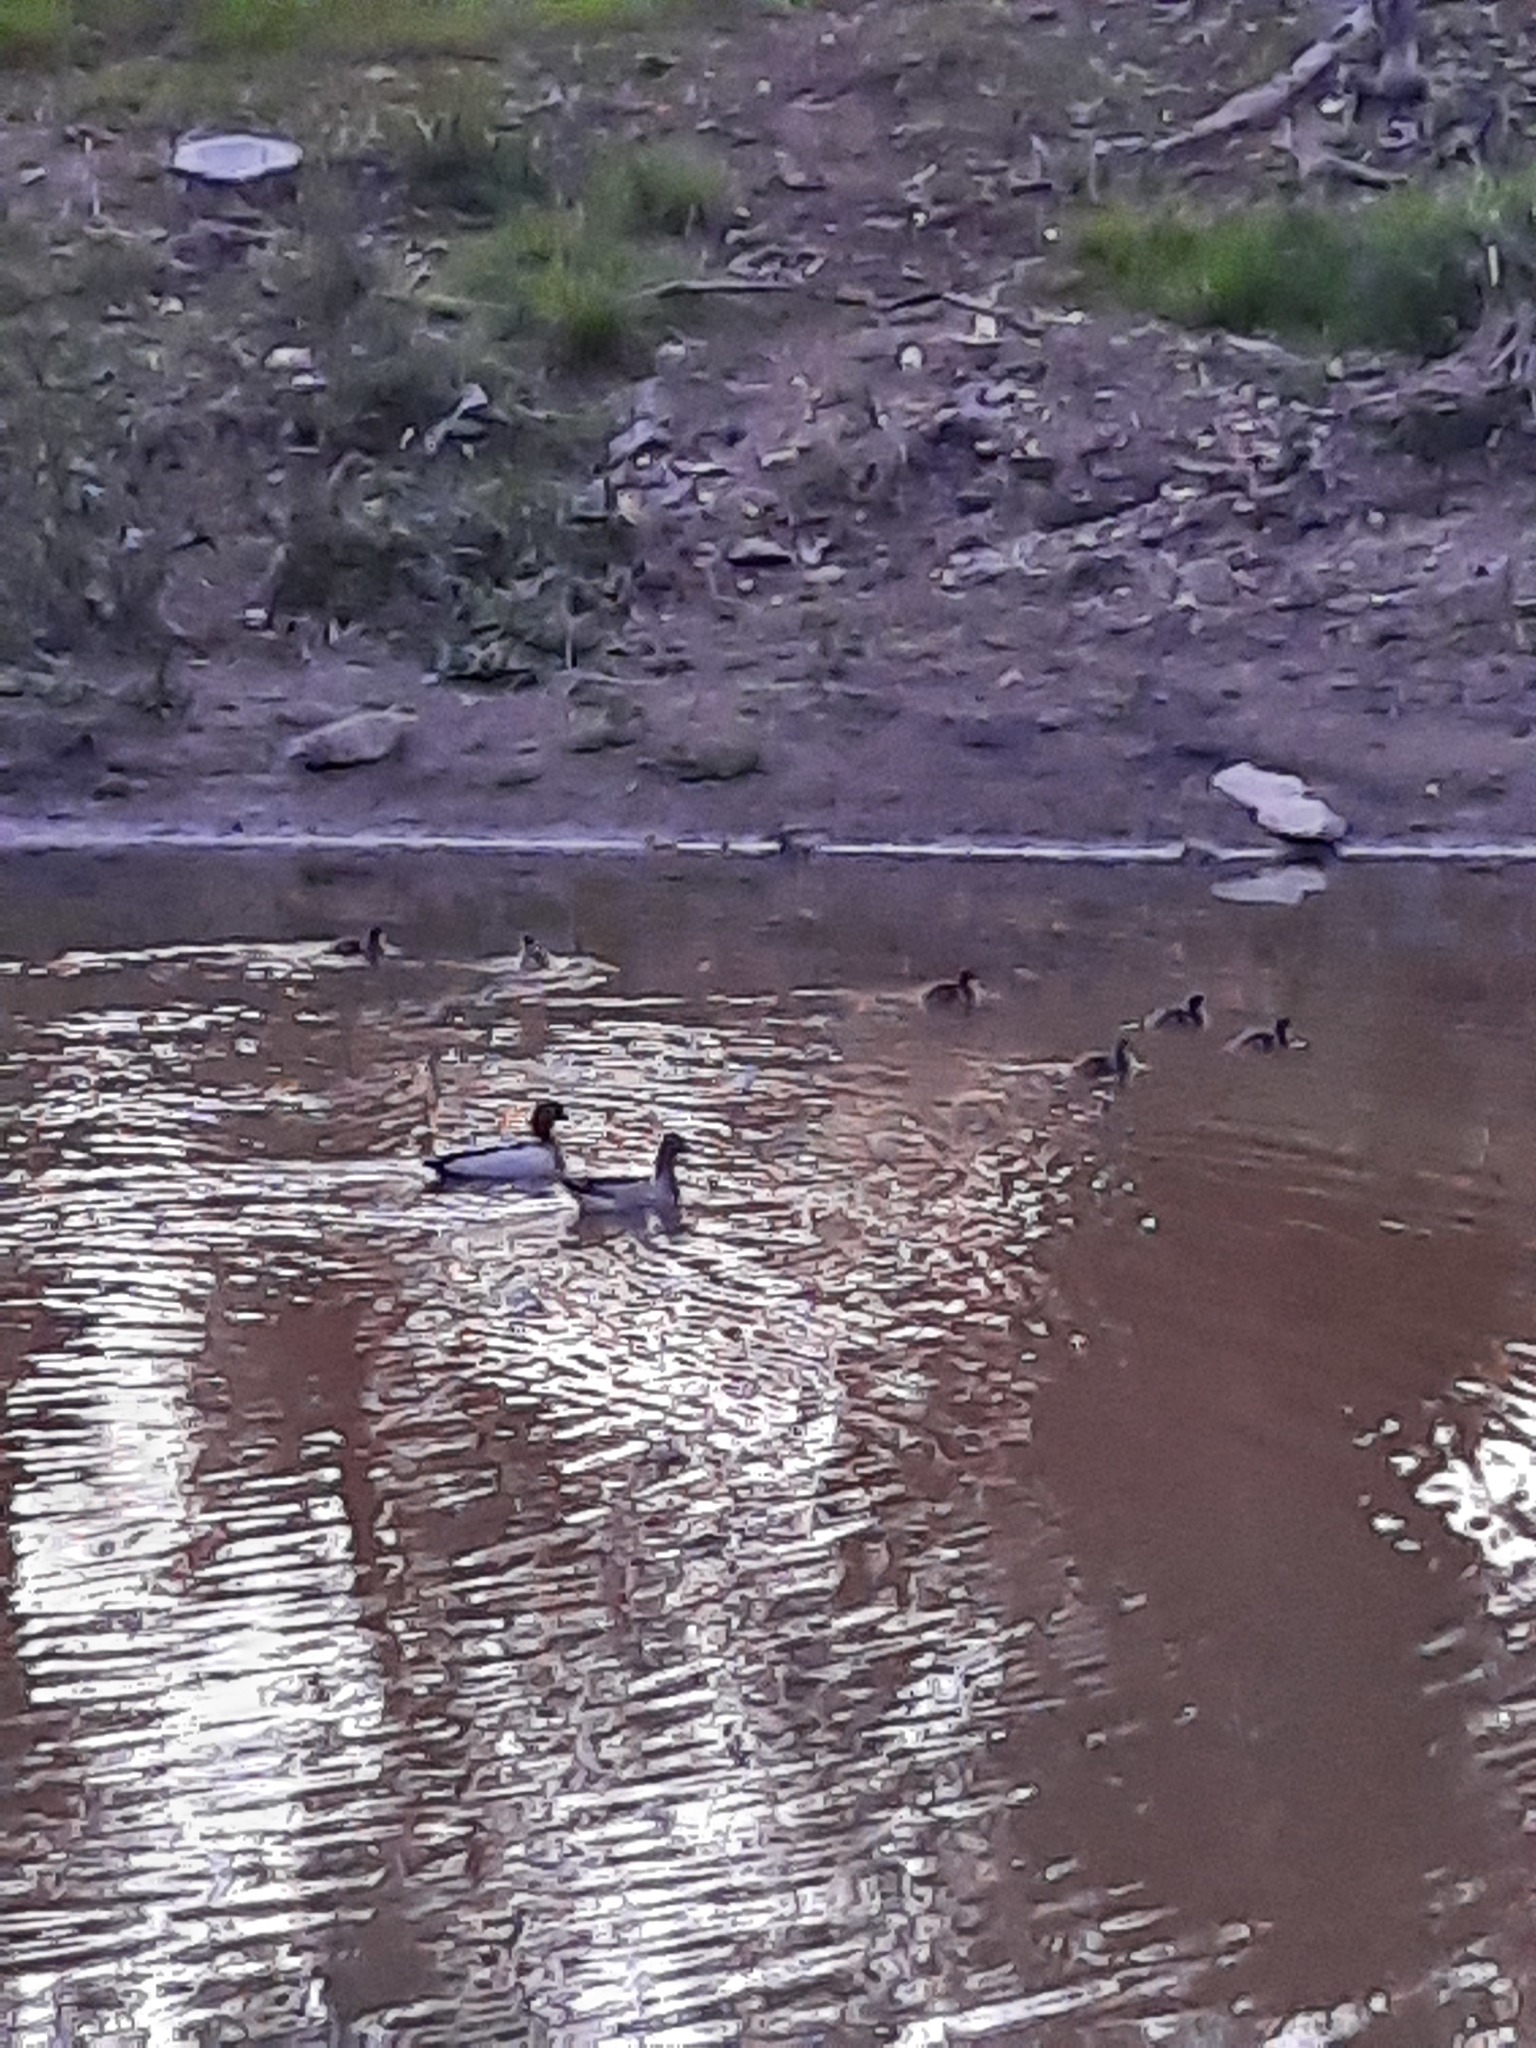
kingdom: Animalia
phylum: Chordata
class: Aves
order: Anseriformes
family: Anatidae
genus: Chenonetta
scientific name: Chenonetta jubata
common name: Maned duck
